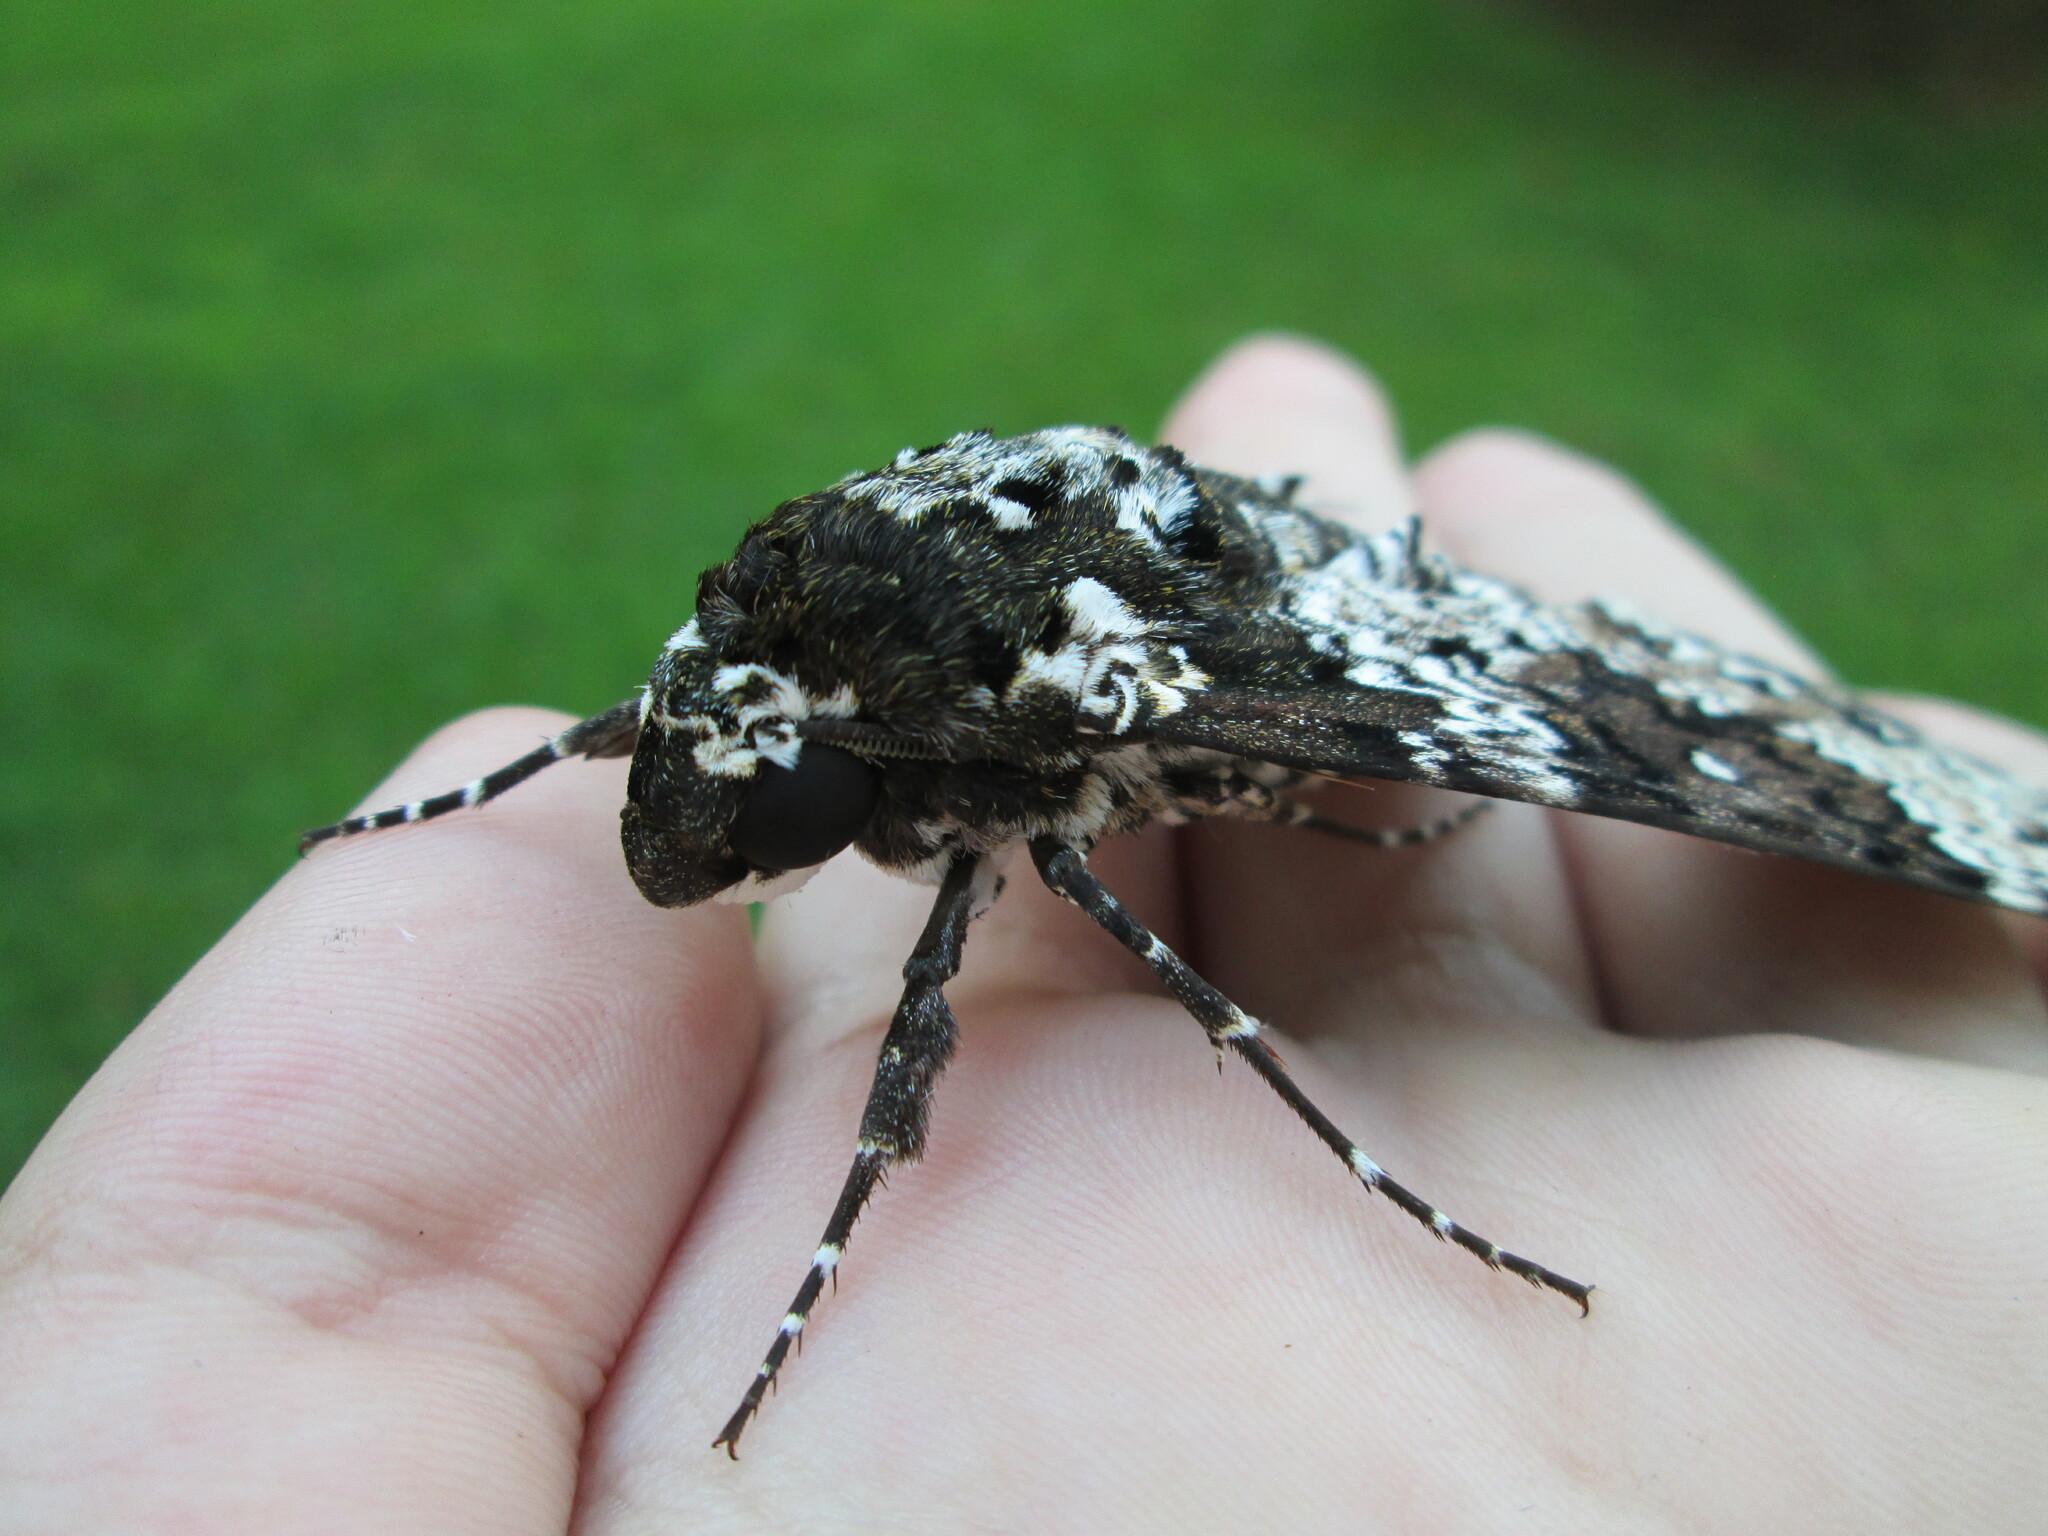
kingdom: Animalia
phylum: Arthropoda
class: Insecta
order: Lepidoptera
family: Sphingidae
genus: Manduca
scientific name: Manduca rustica
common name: Rustic sphinx
